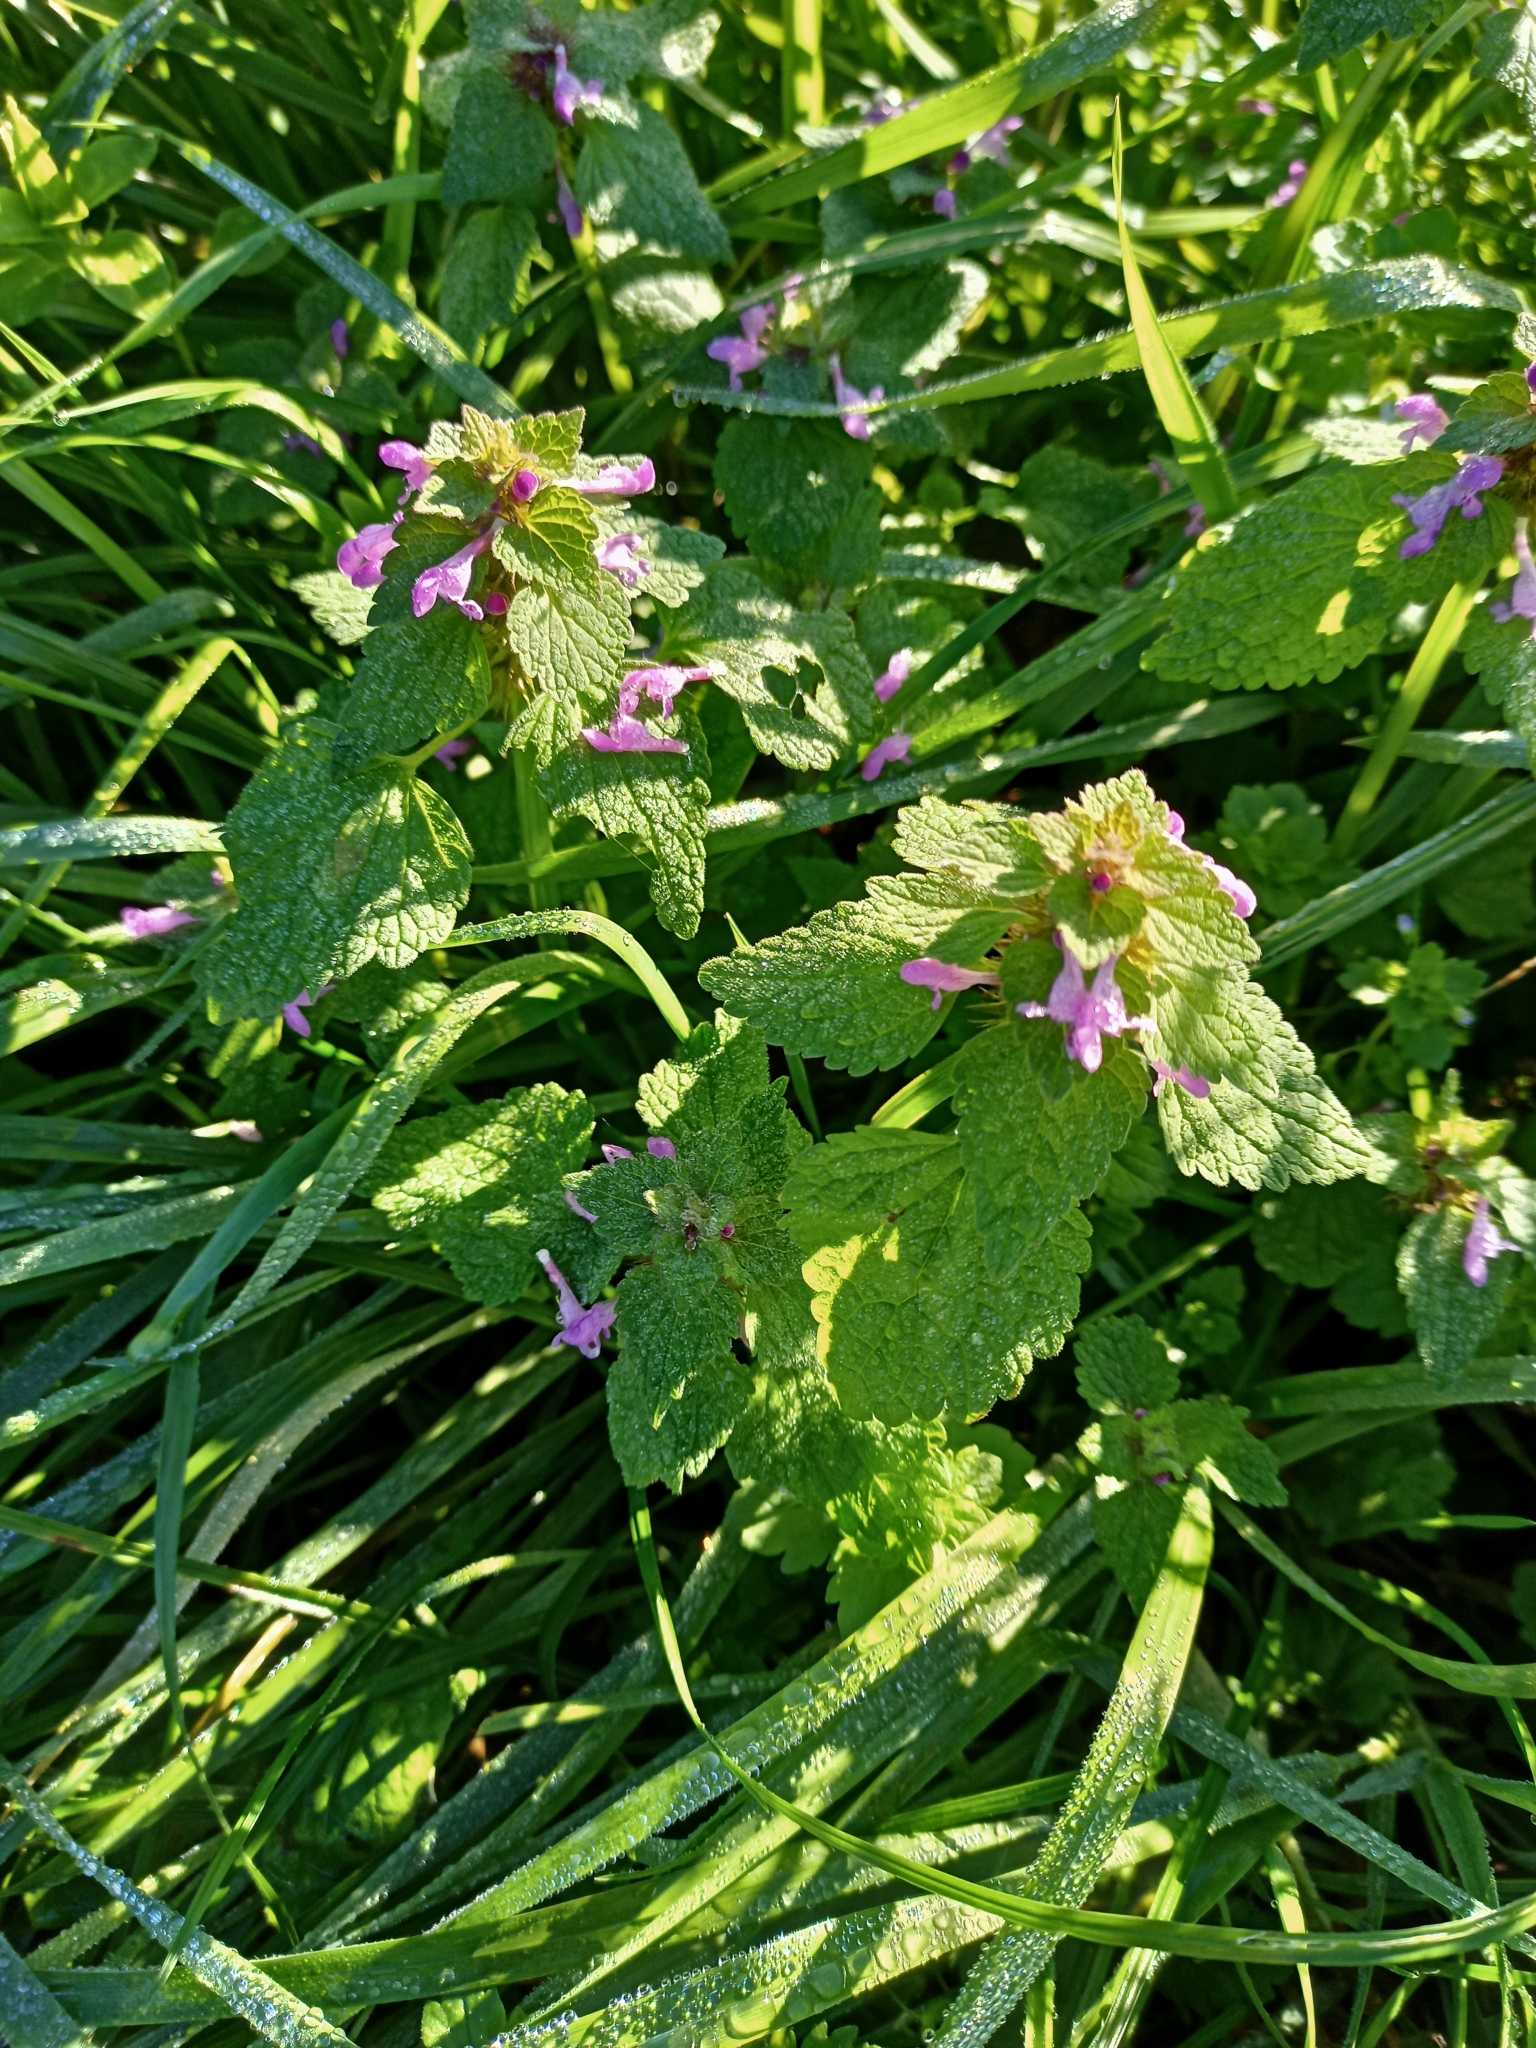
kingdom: Plantae
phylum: Tracheophyta
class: Magnoliopsida
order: Lamiales
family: Lamiaceae
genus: Lamium
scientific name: Lamium purpureum
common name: Red dead-nettle
